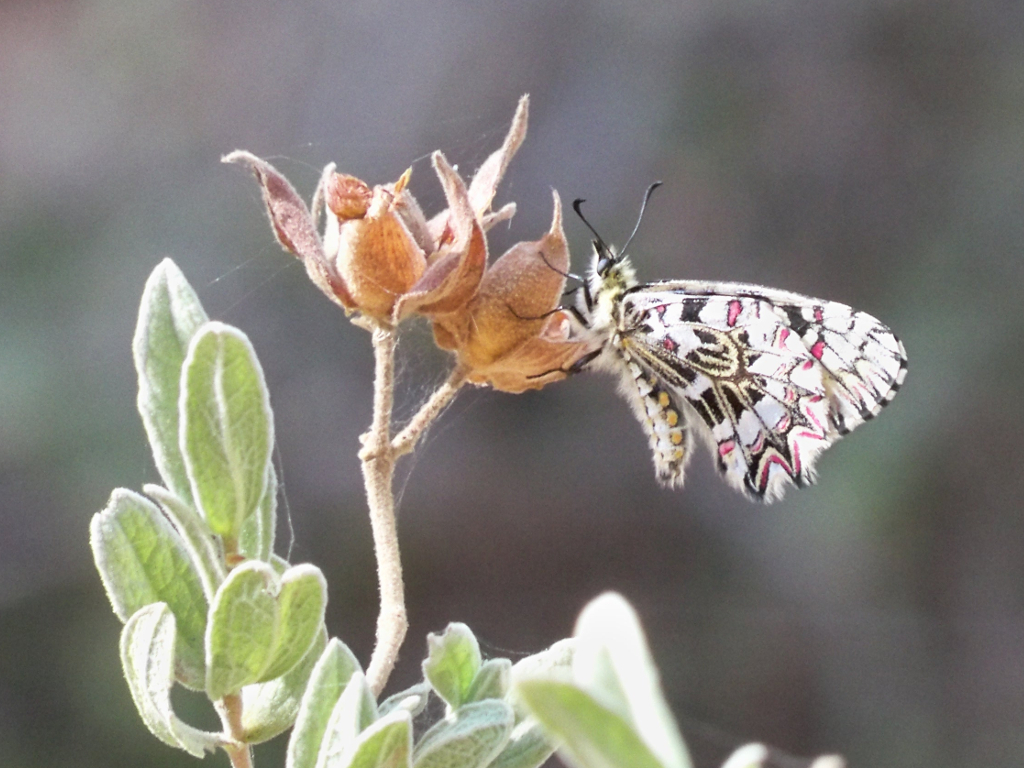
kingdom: Animalia
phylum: Arthropoda
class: Insecta
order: Lepidoptera
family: Papilionidae
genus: Zerynthia
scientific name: Zerynthia rumina
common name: Spanish festoon
